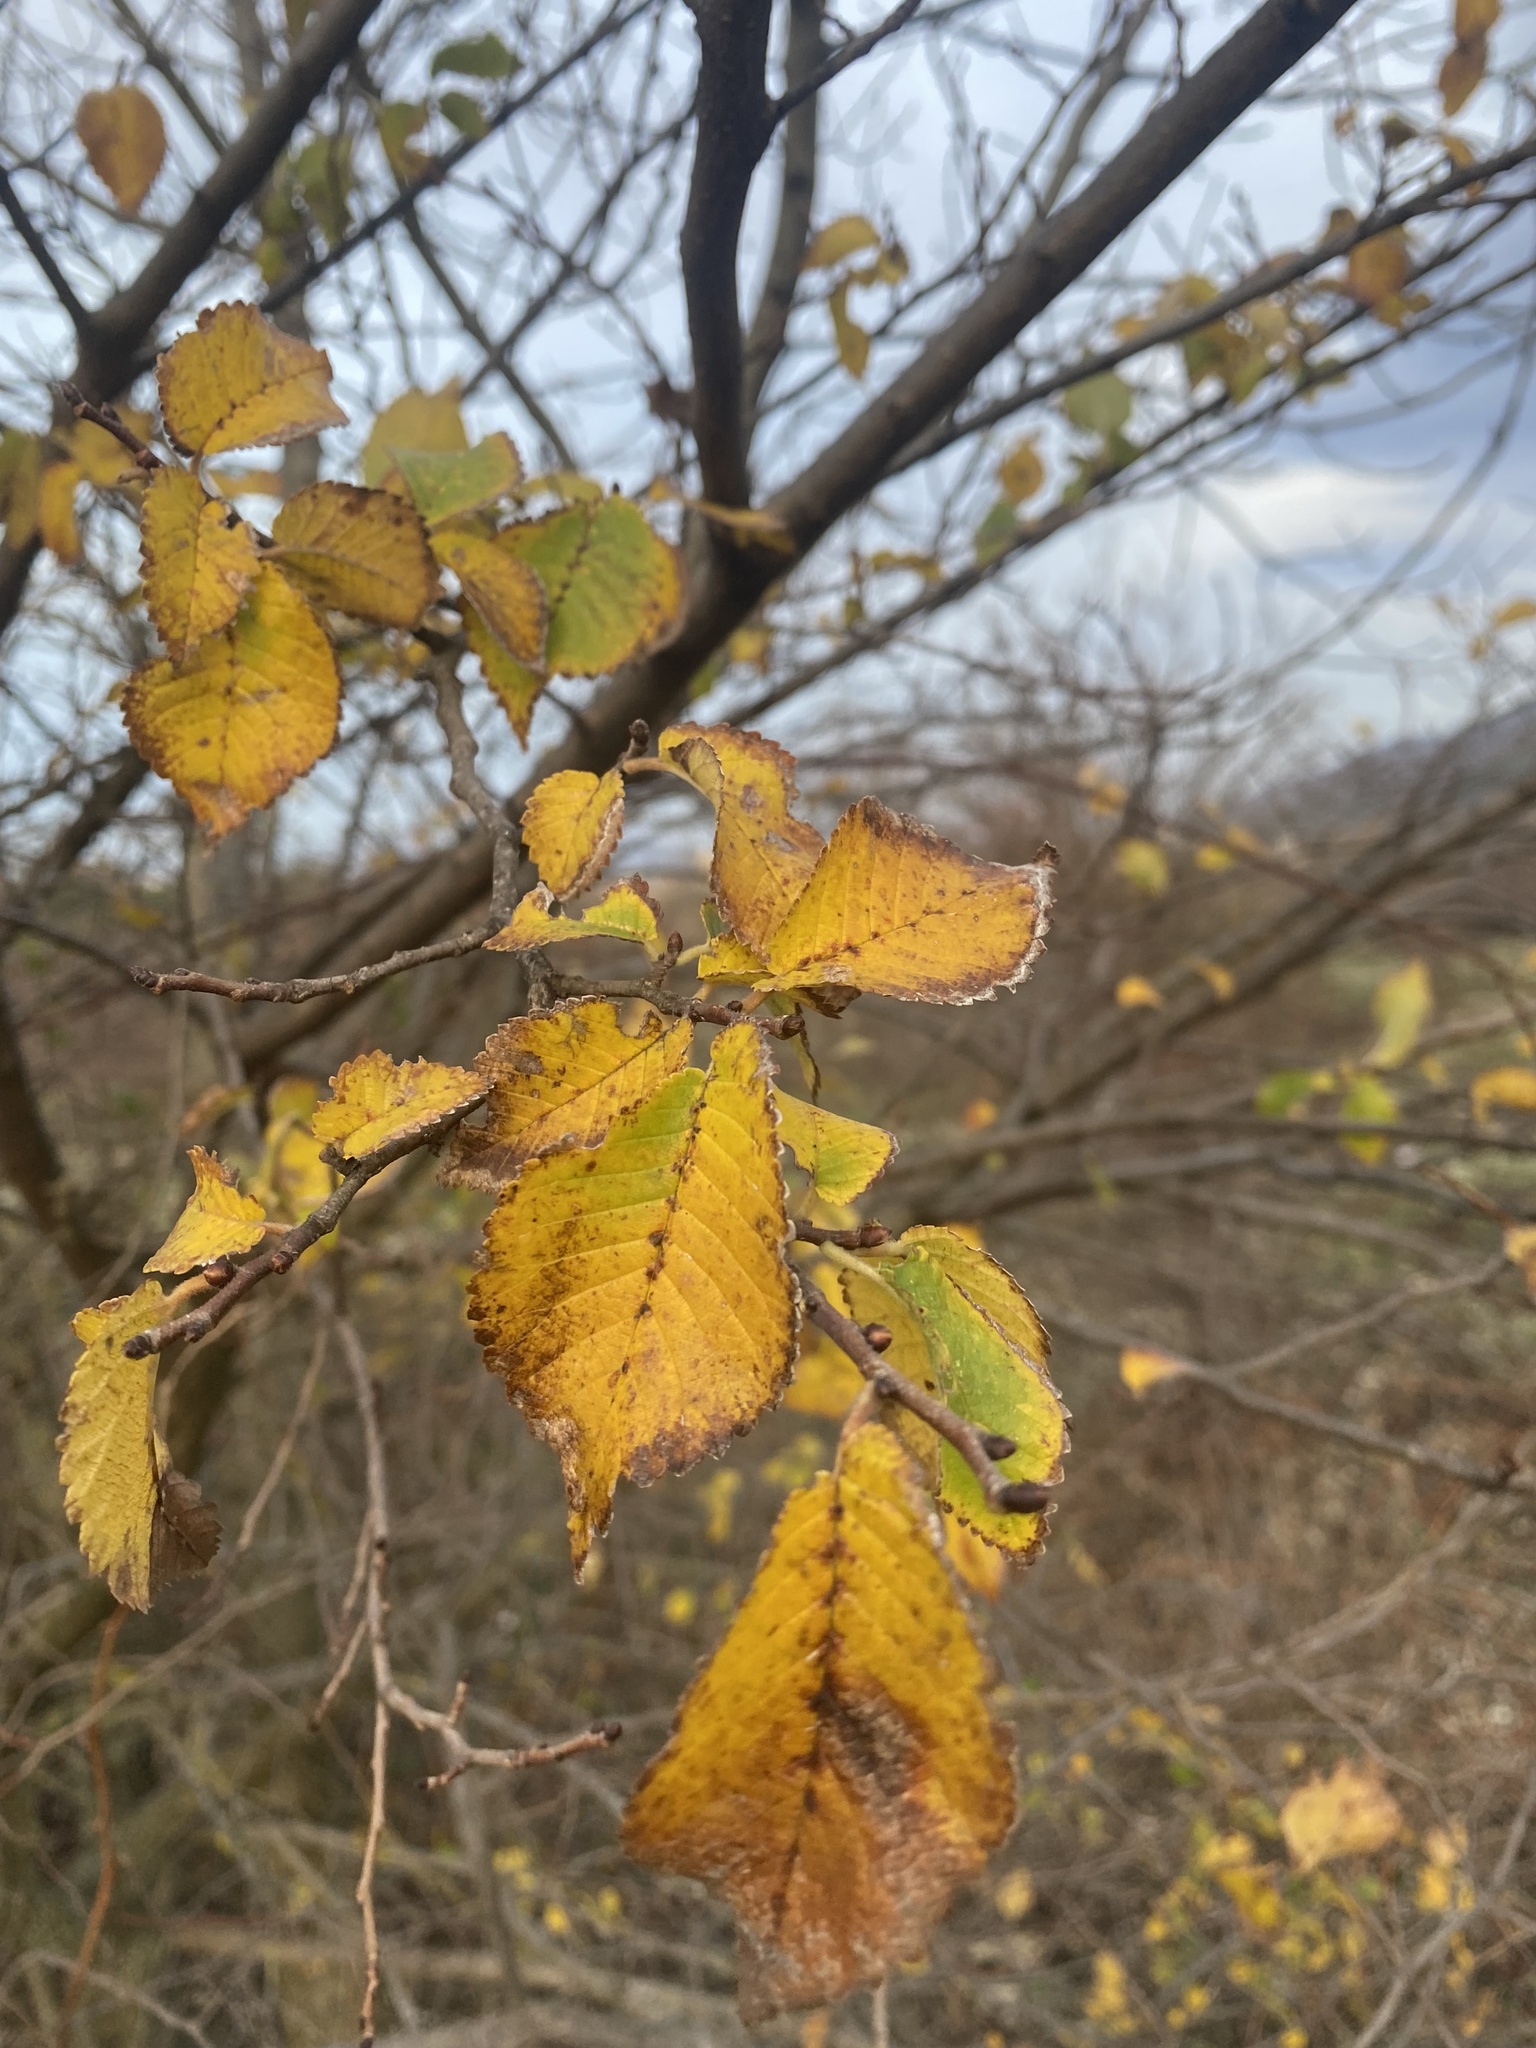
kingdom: Plantae
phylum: Tracheophyta
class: Magnoliopsida
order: Rosales
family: Ulmaceae
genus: Ulmus
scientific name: Ulmus minor
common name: Small-leaved elm
